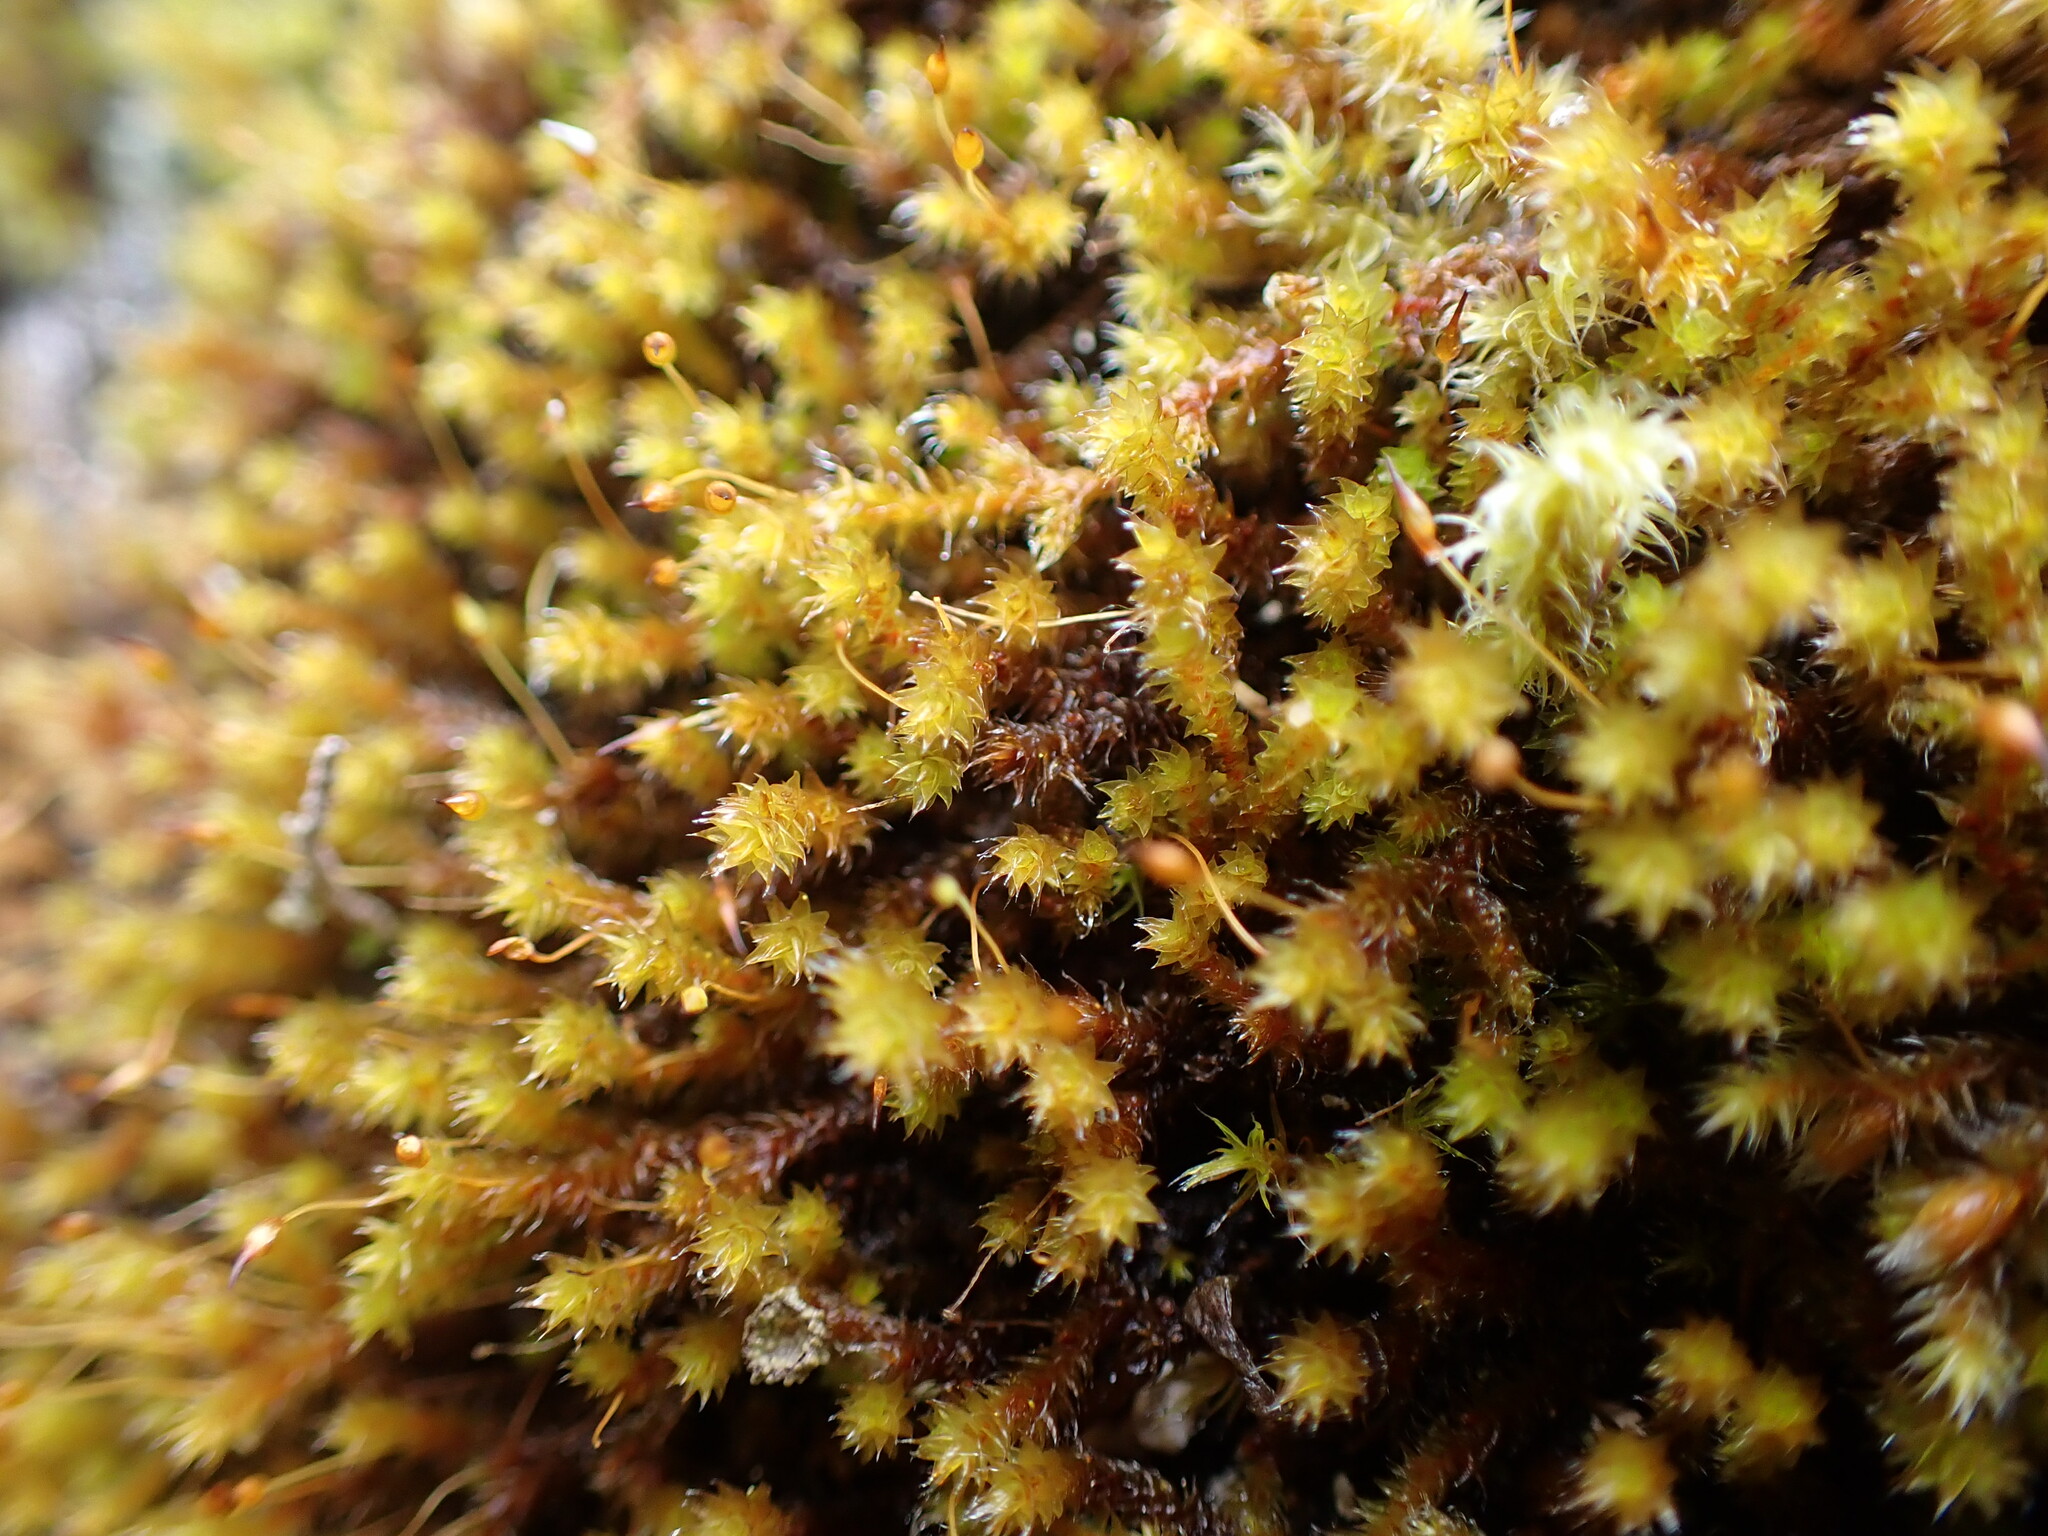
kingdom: Plantae
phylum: Bryophyta
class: Bryopsida
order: Hedwigiales
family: Hedwigiaceae
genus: Pseudobraunia
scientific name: Pseudobraunia californica
